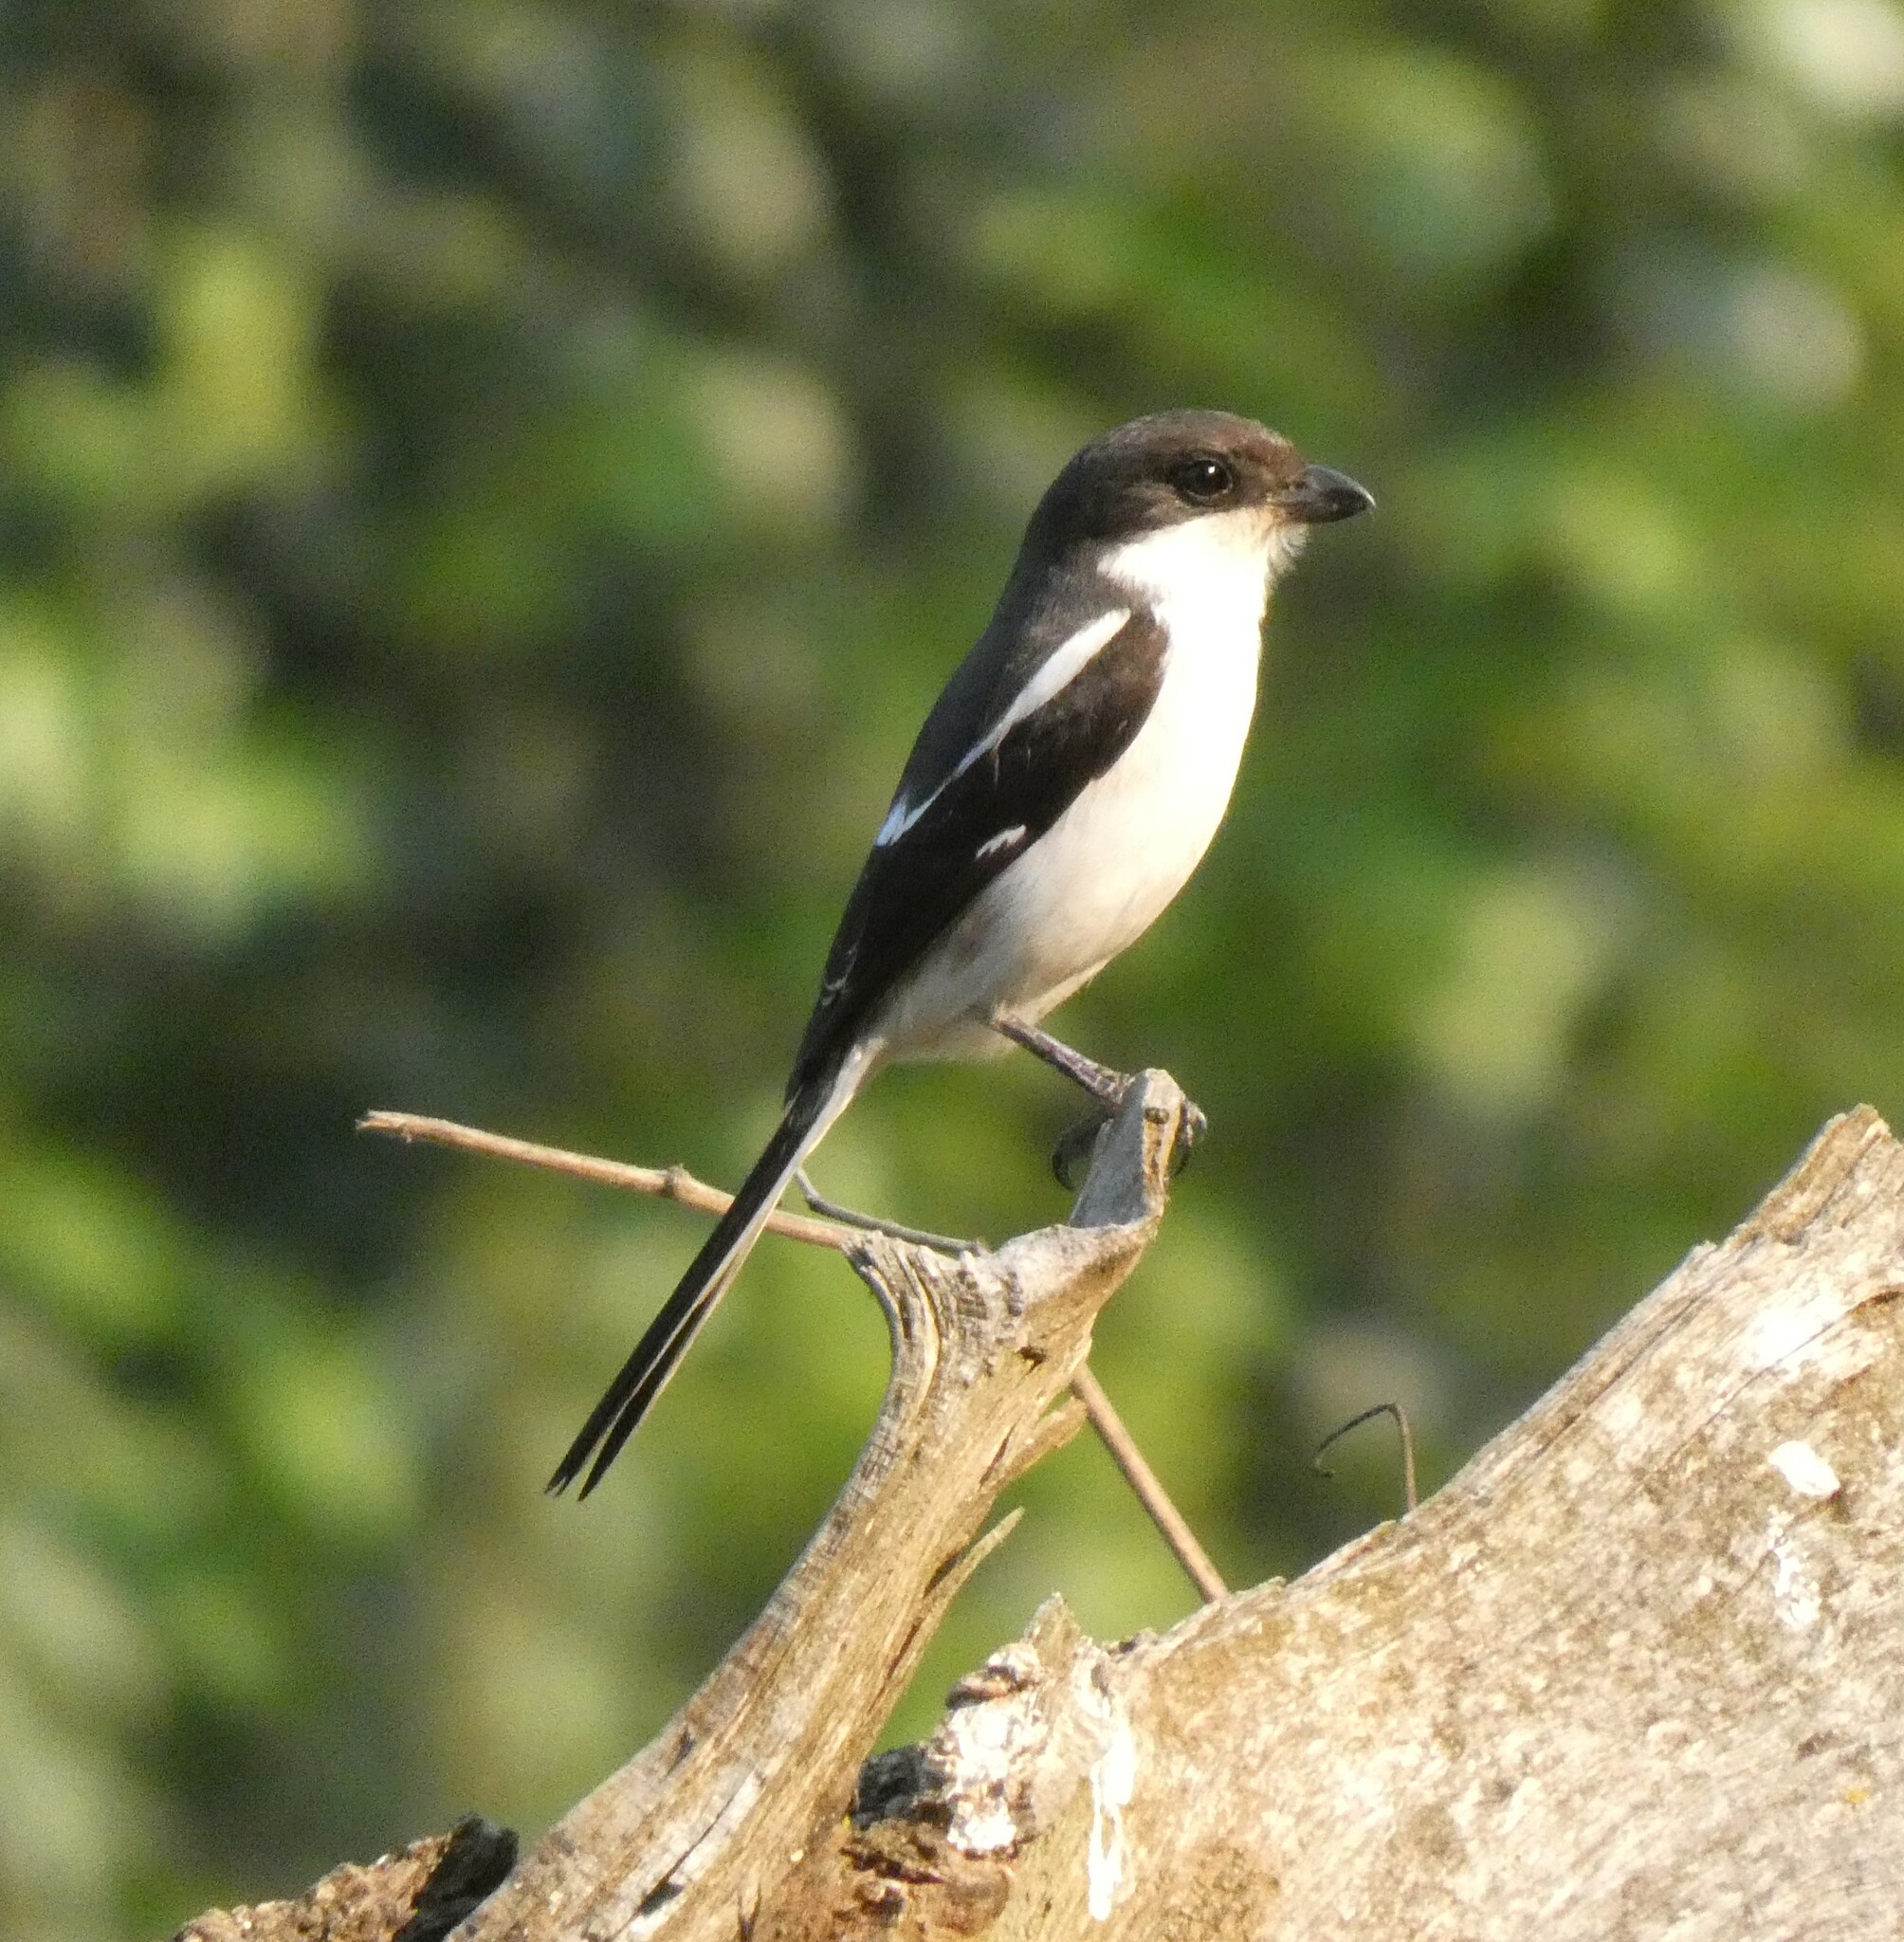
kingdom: Animalia
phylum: Chordata
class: Aves
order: Passeriformes
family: Laniidae
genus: Lanius
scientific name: Lanius collaris
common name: Southern fiscal
